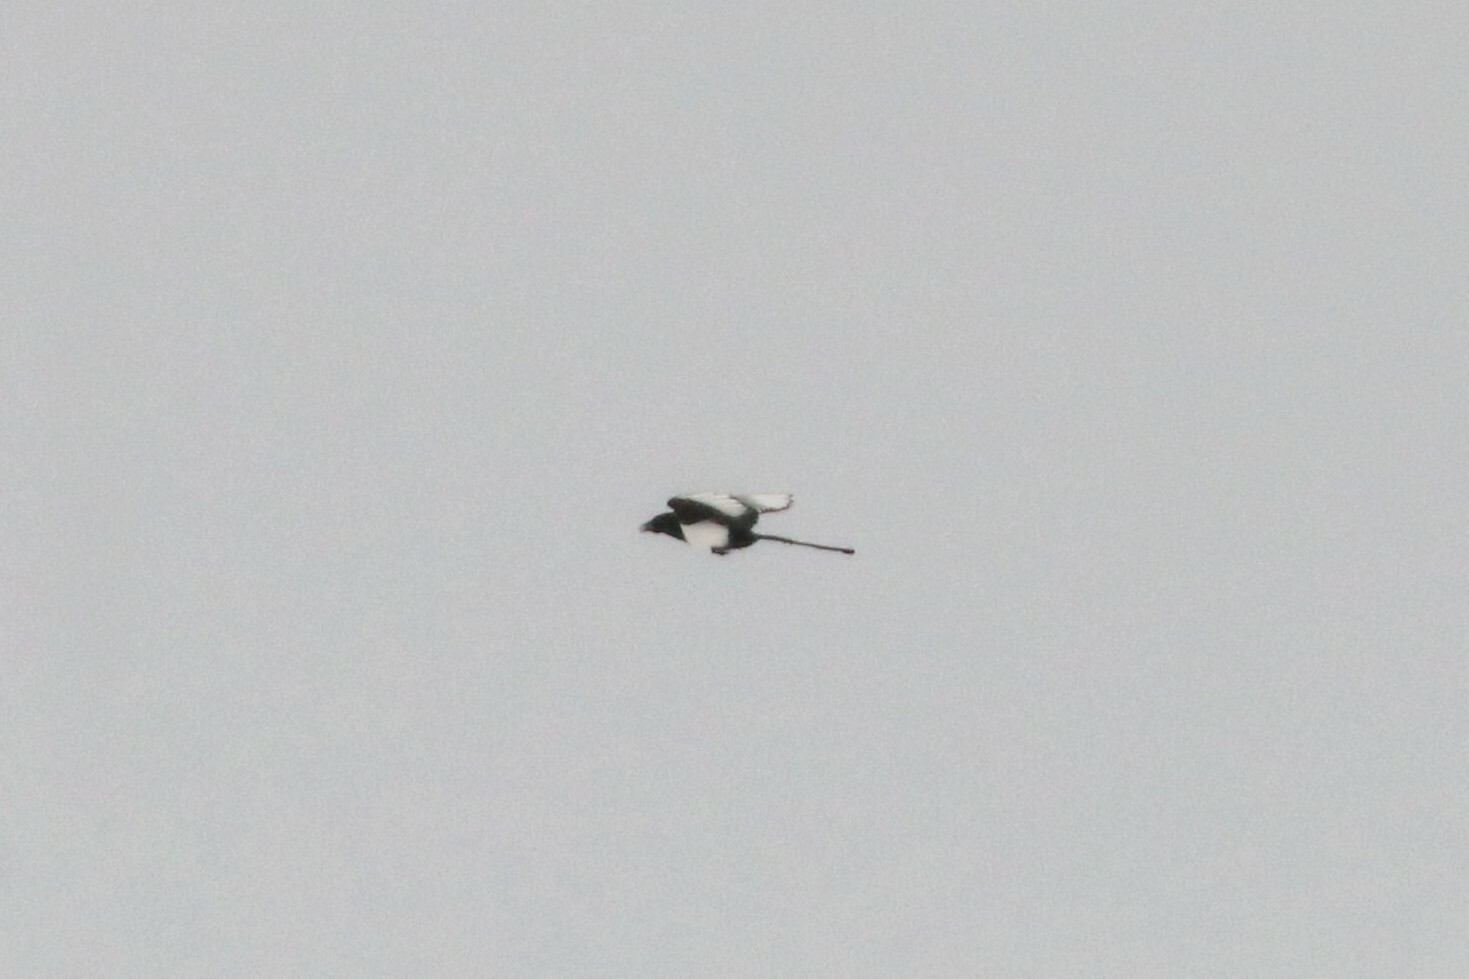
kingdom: Animalia
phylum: Chordata
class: Aves
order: Passeriformes
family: Corvidae
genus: Pica
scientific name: Pica pica
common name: Eurasian magpie
